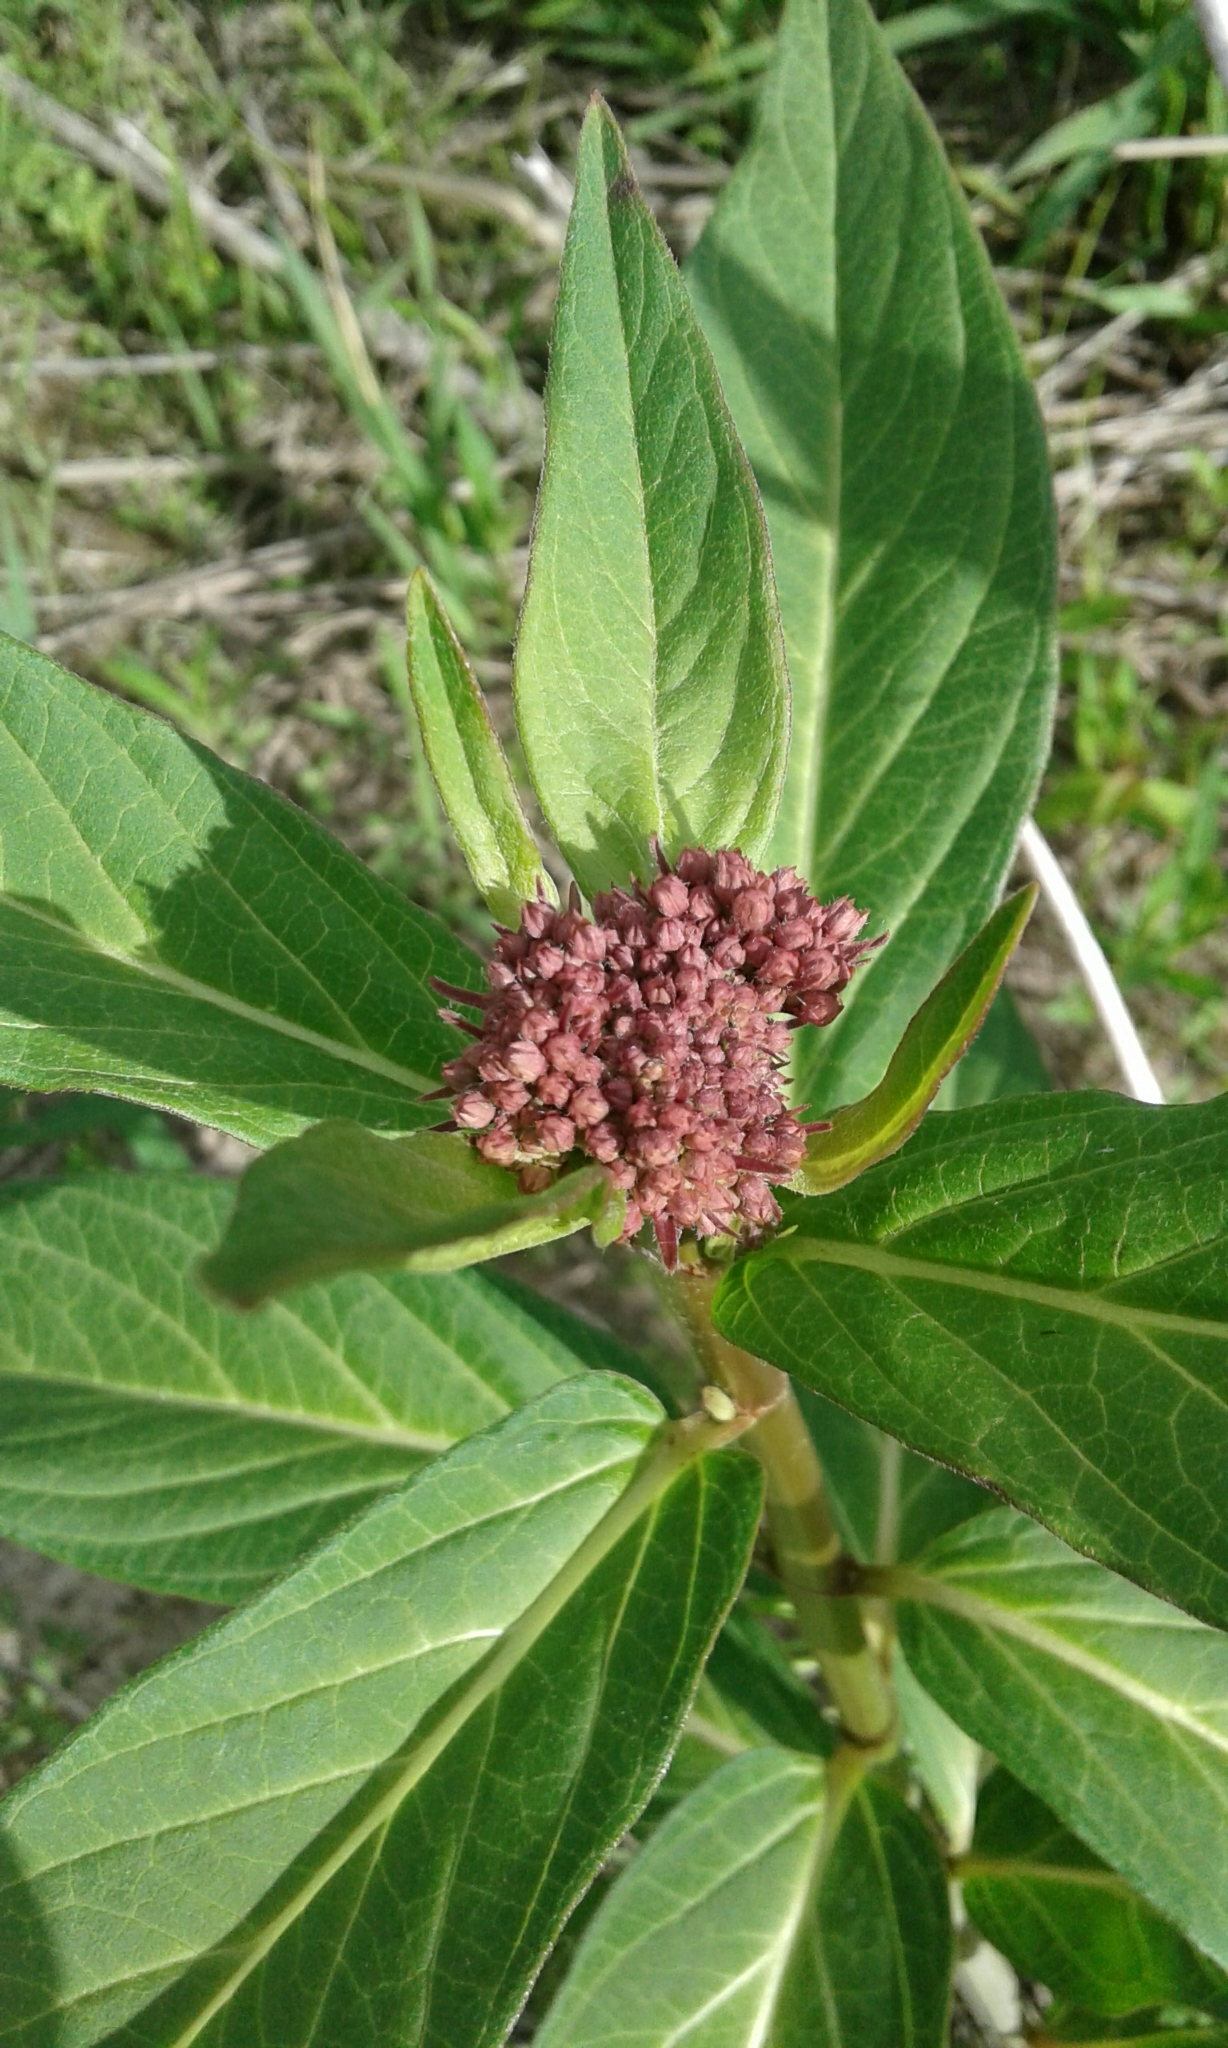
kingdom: Plantae
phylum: Tracheophyta
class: Magnoliopsida
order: Gentianales
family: Apocynaceae
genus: Asclepias
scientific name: Asclepias incarnata
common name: Swamp milkweed
